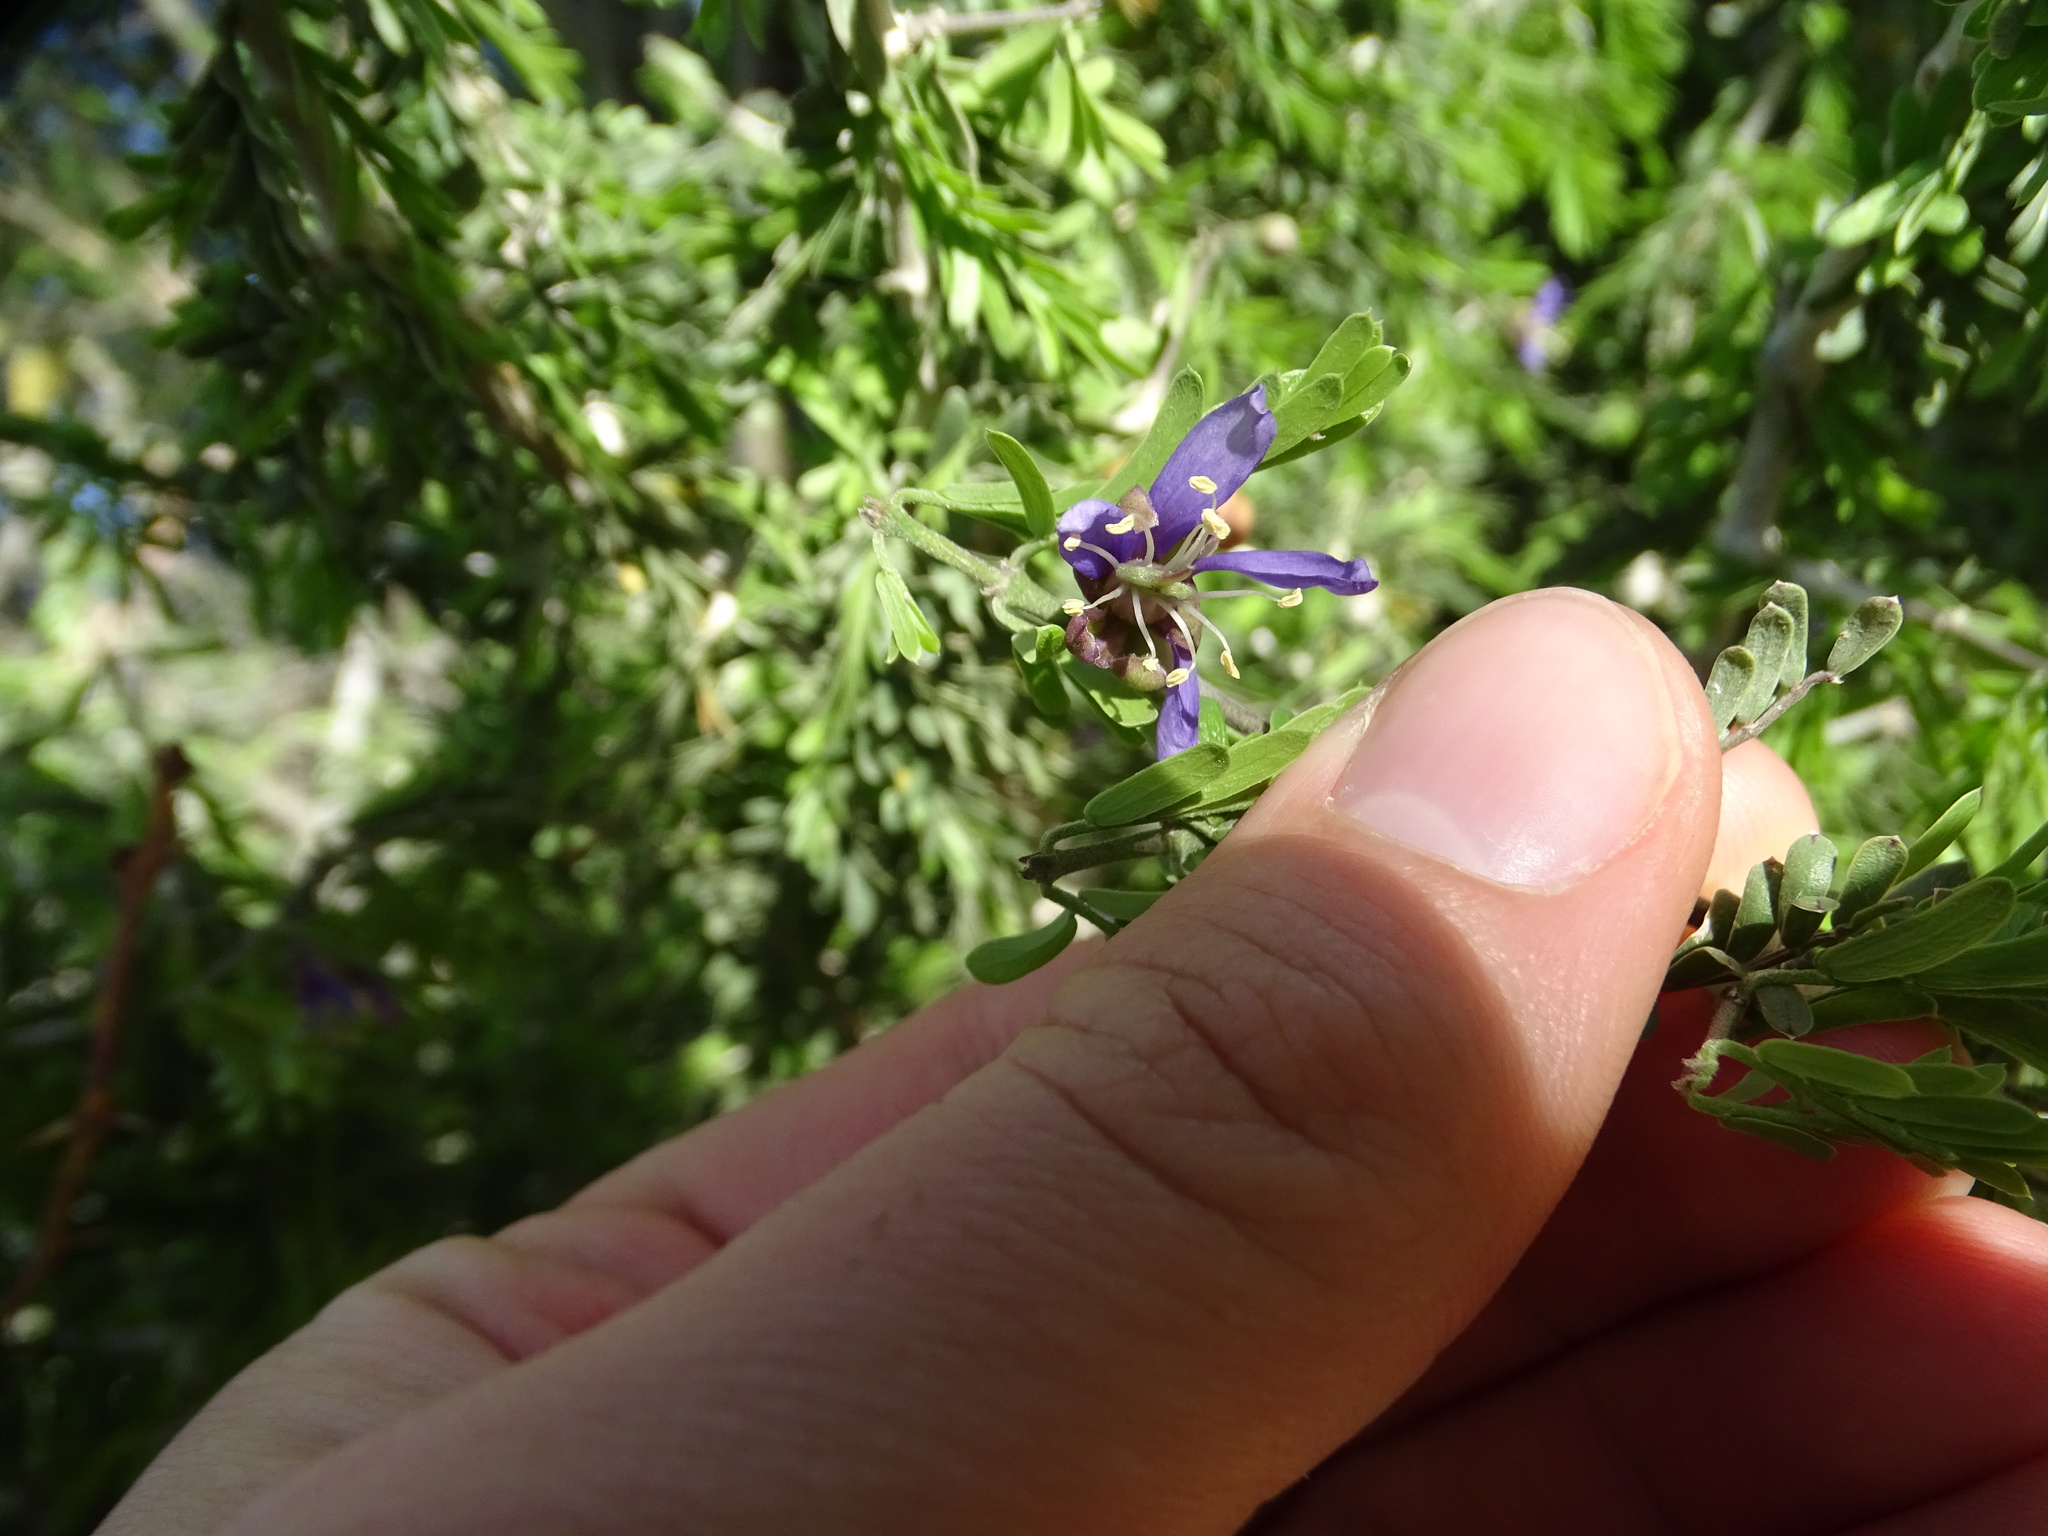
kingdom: Plantae
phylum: Tracheophyta
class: Magnoliopsida
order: Zygophyllales
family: Zygophyllaceae
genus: Porlieria
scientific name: Porlieria angustifolia
